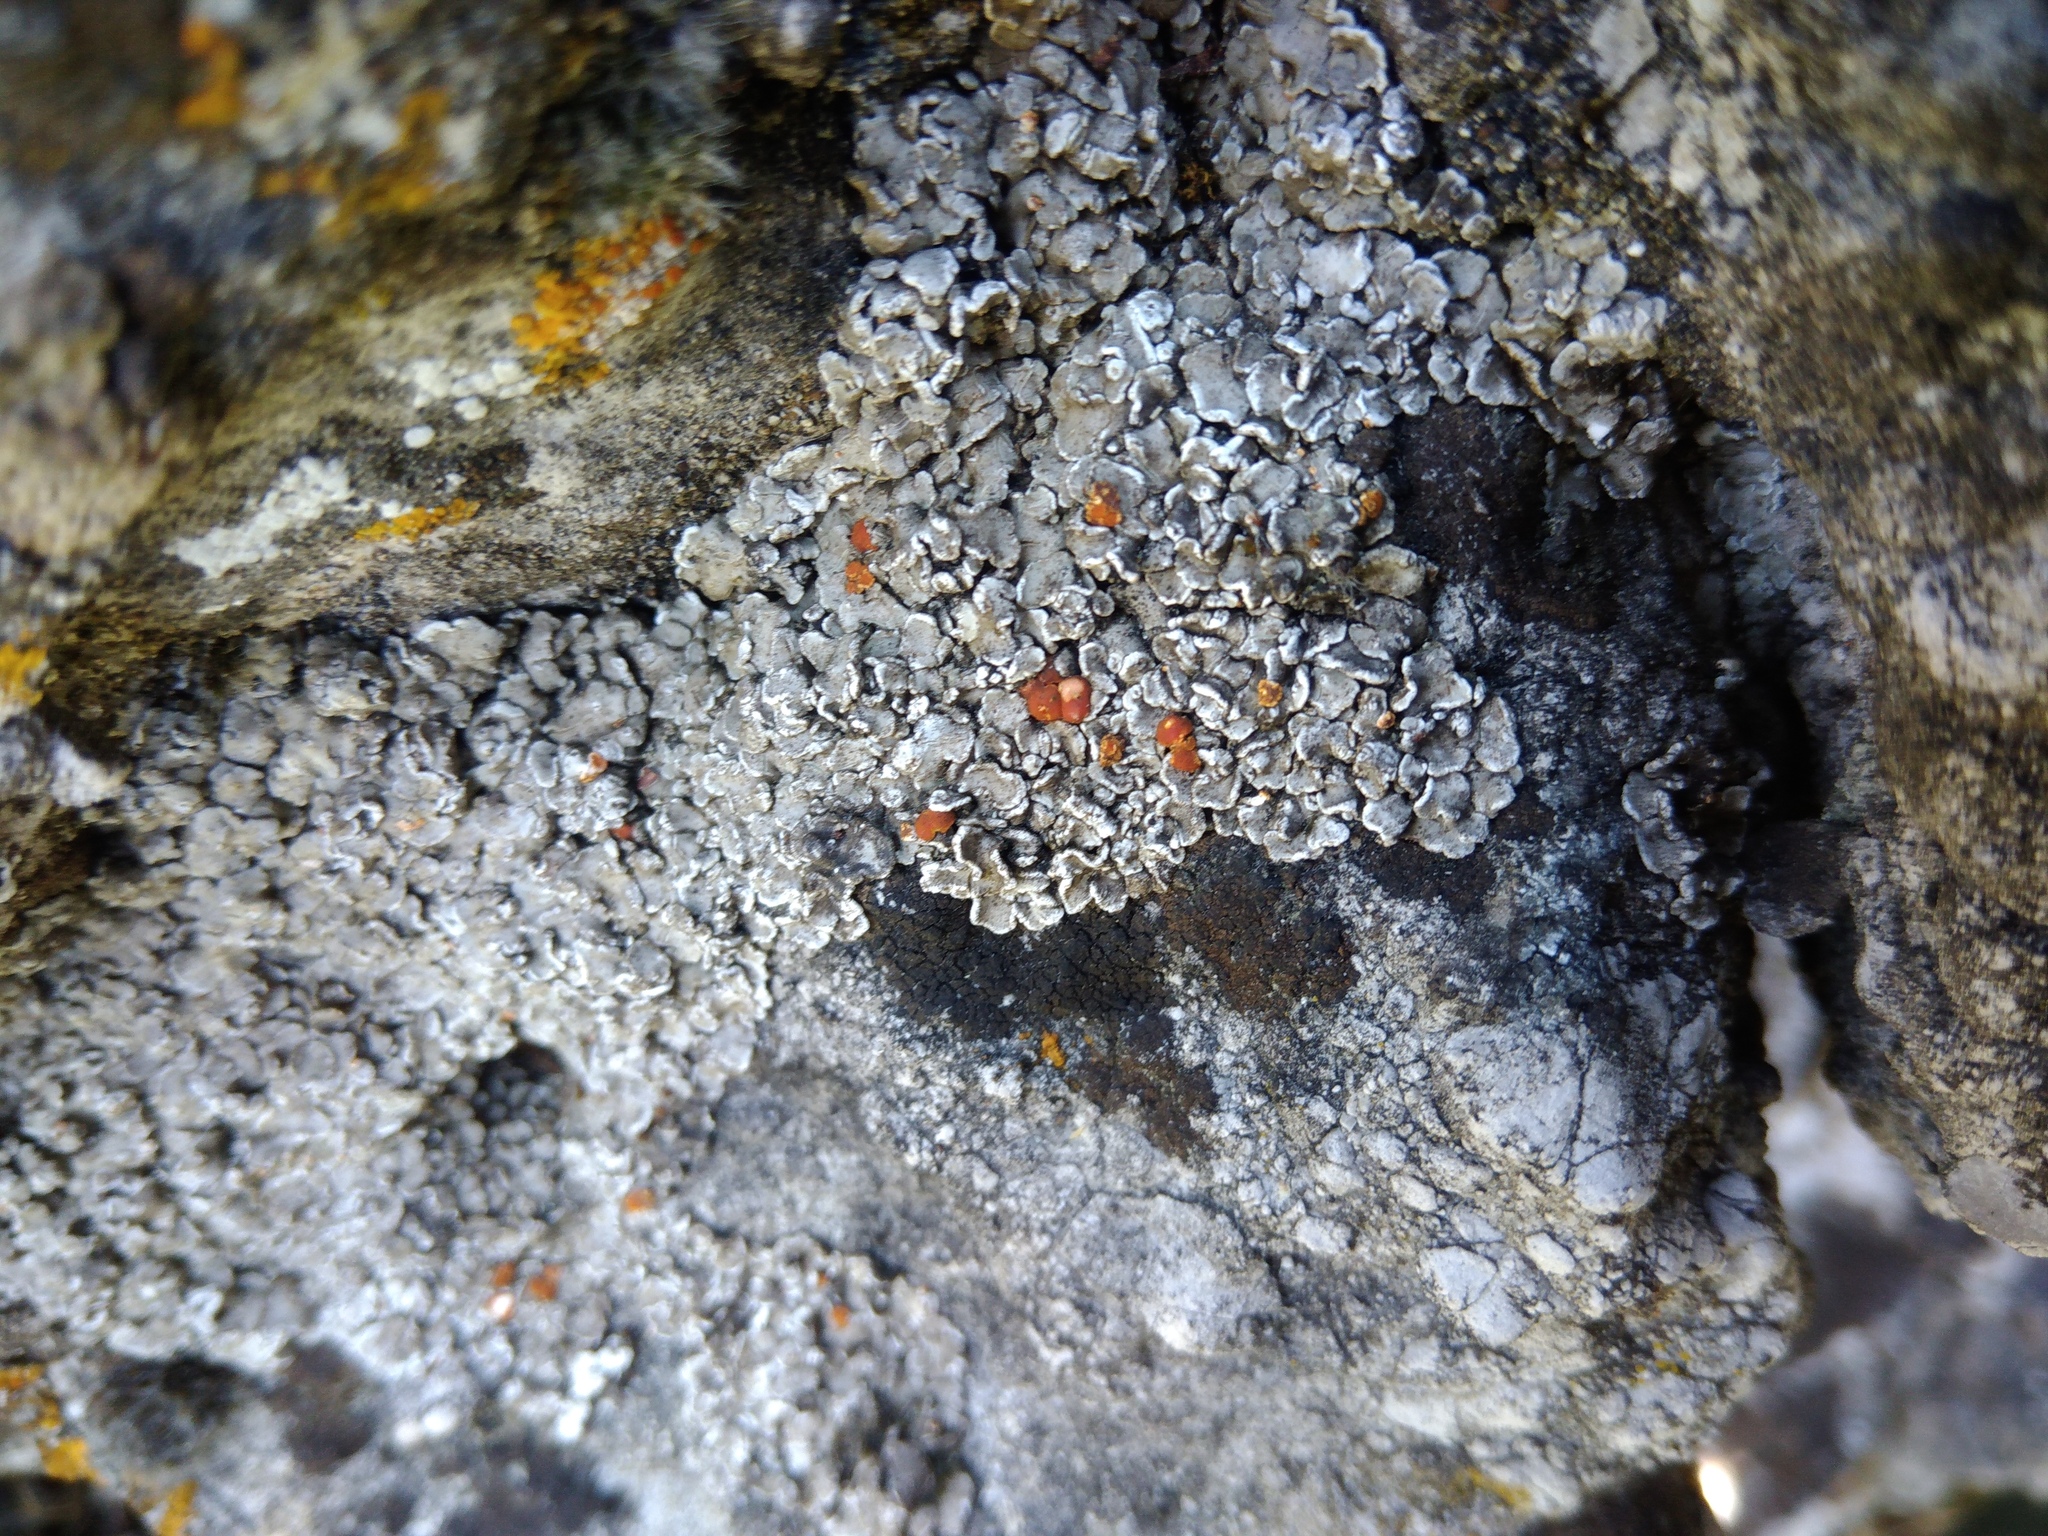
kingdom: Fungi
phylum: Ascomycota
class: Lecanoromycetes
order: Lecanorales
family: Psoraceae
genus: Psora
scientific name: Psora testacea
